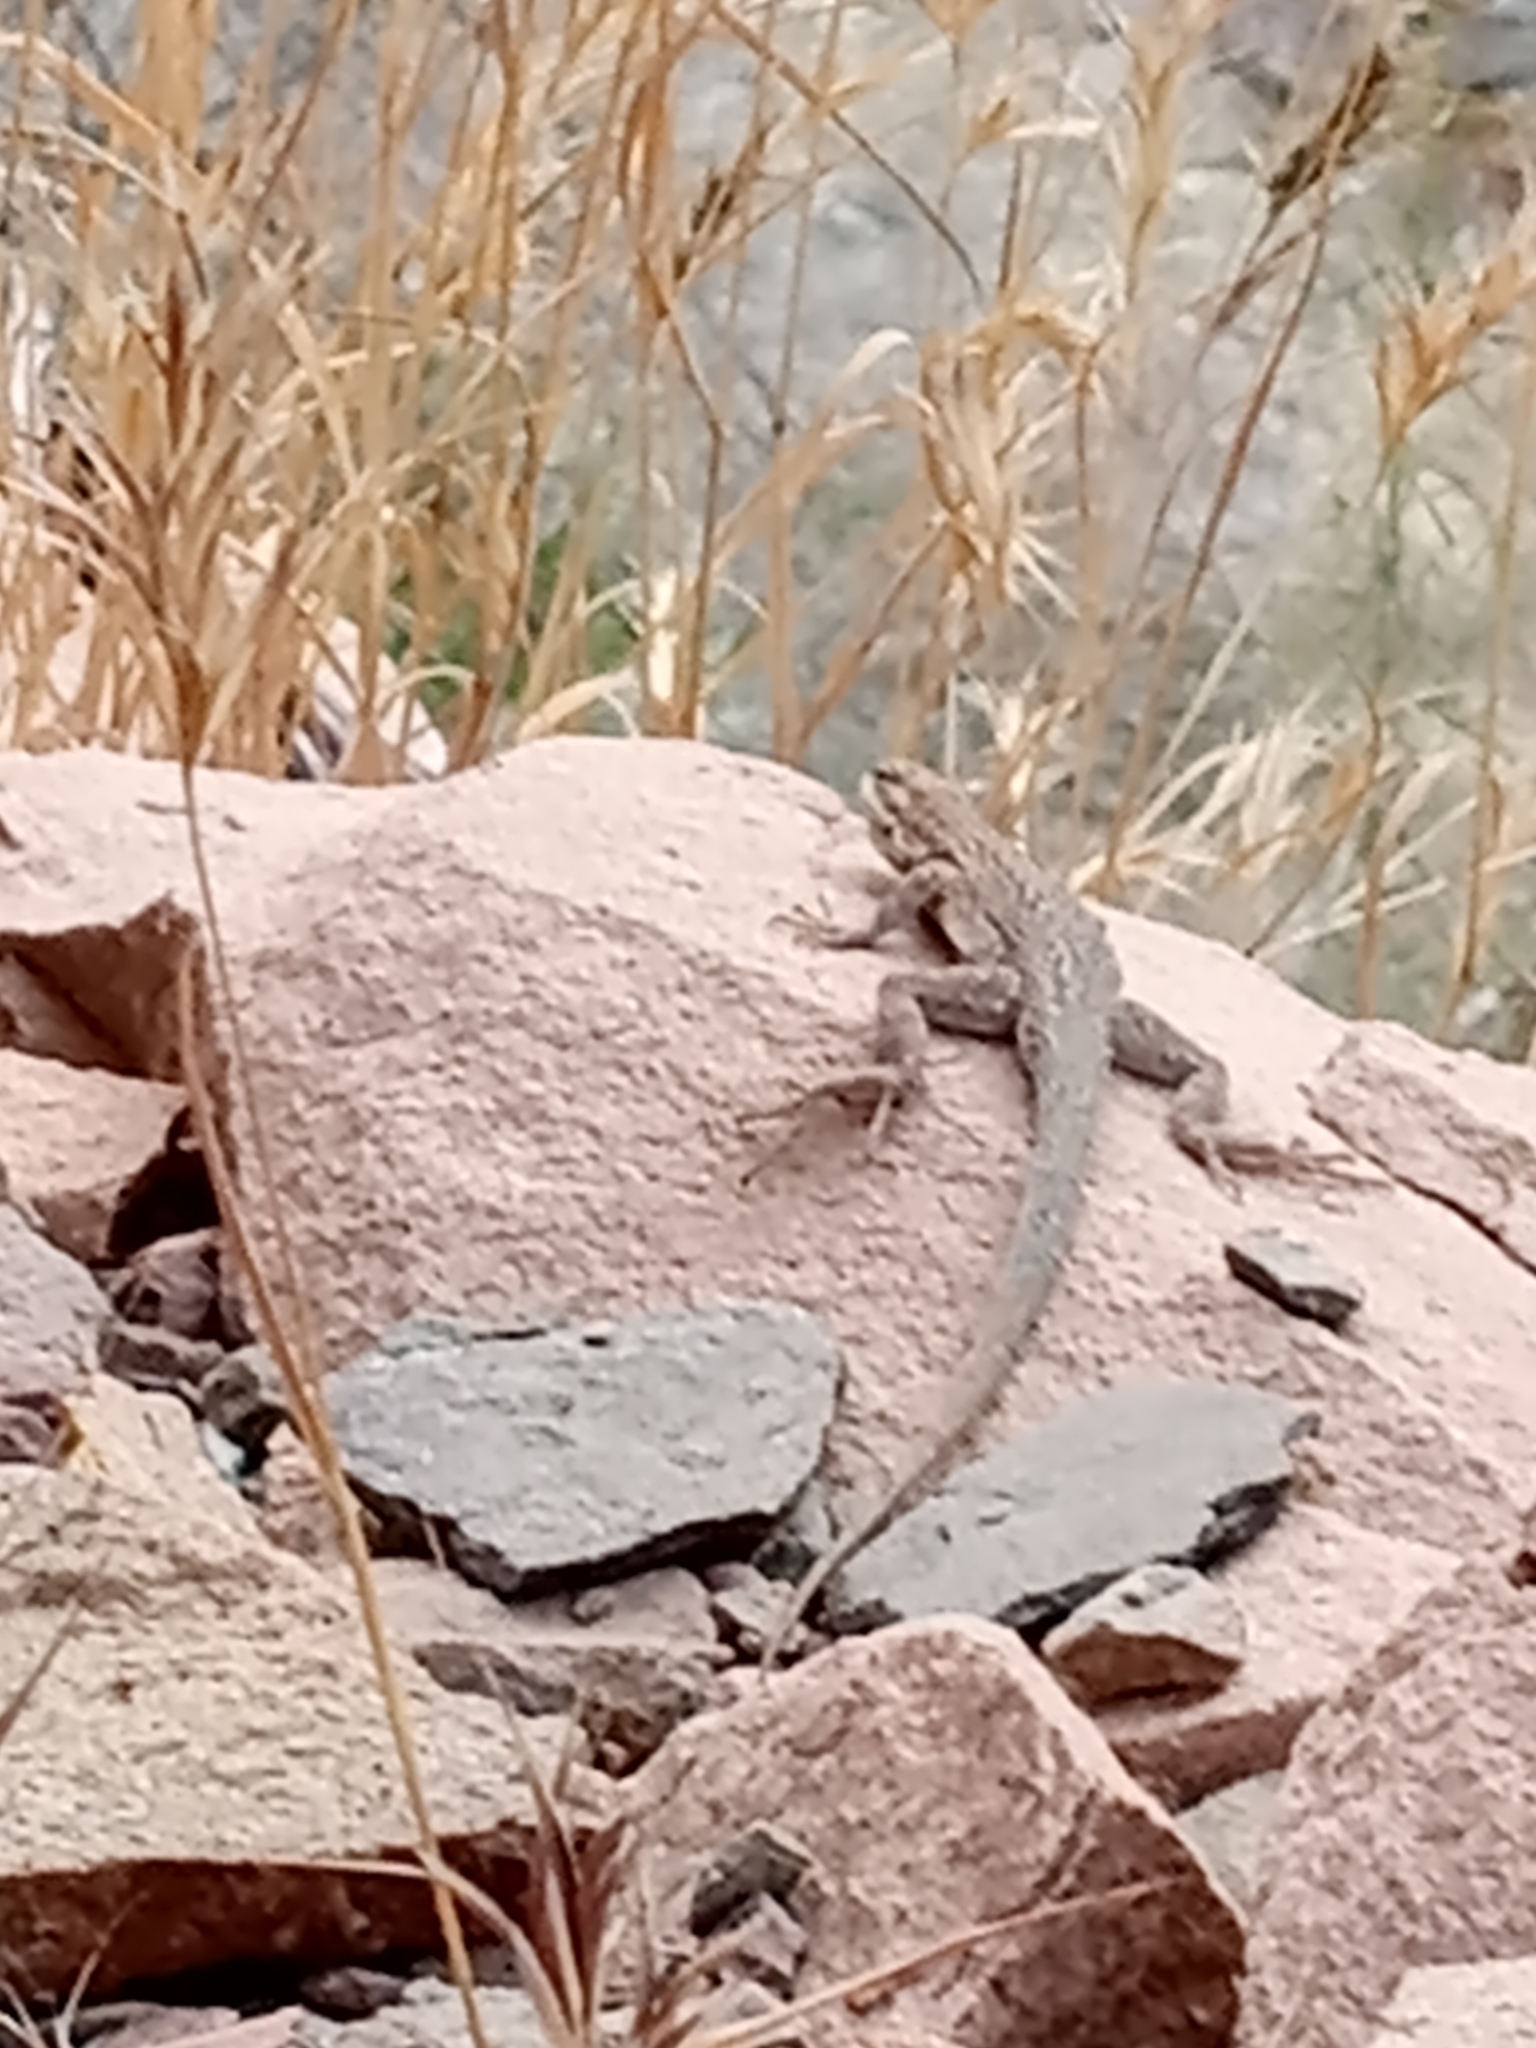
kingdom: Animalia
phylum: Chordata
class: Squamata
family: Phrynosomatidae
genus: Uta
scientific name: Uta stansburiana
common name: Side-blotched lizard
